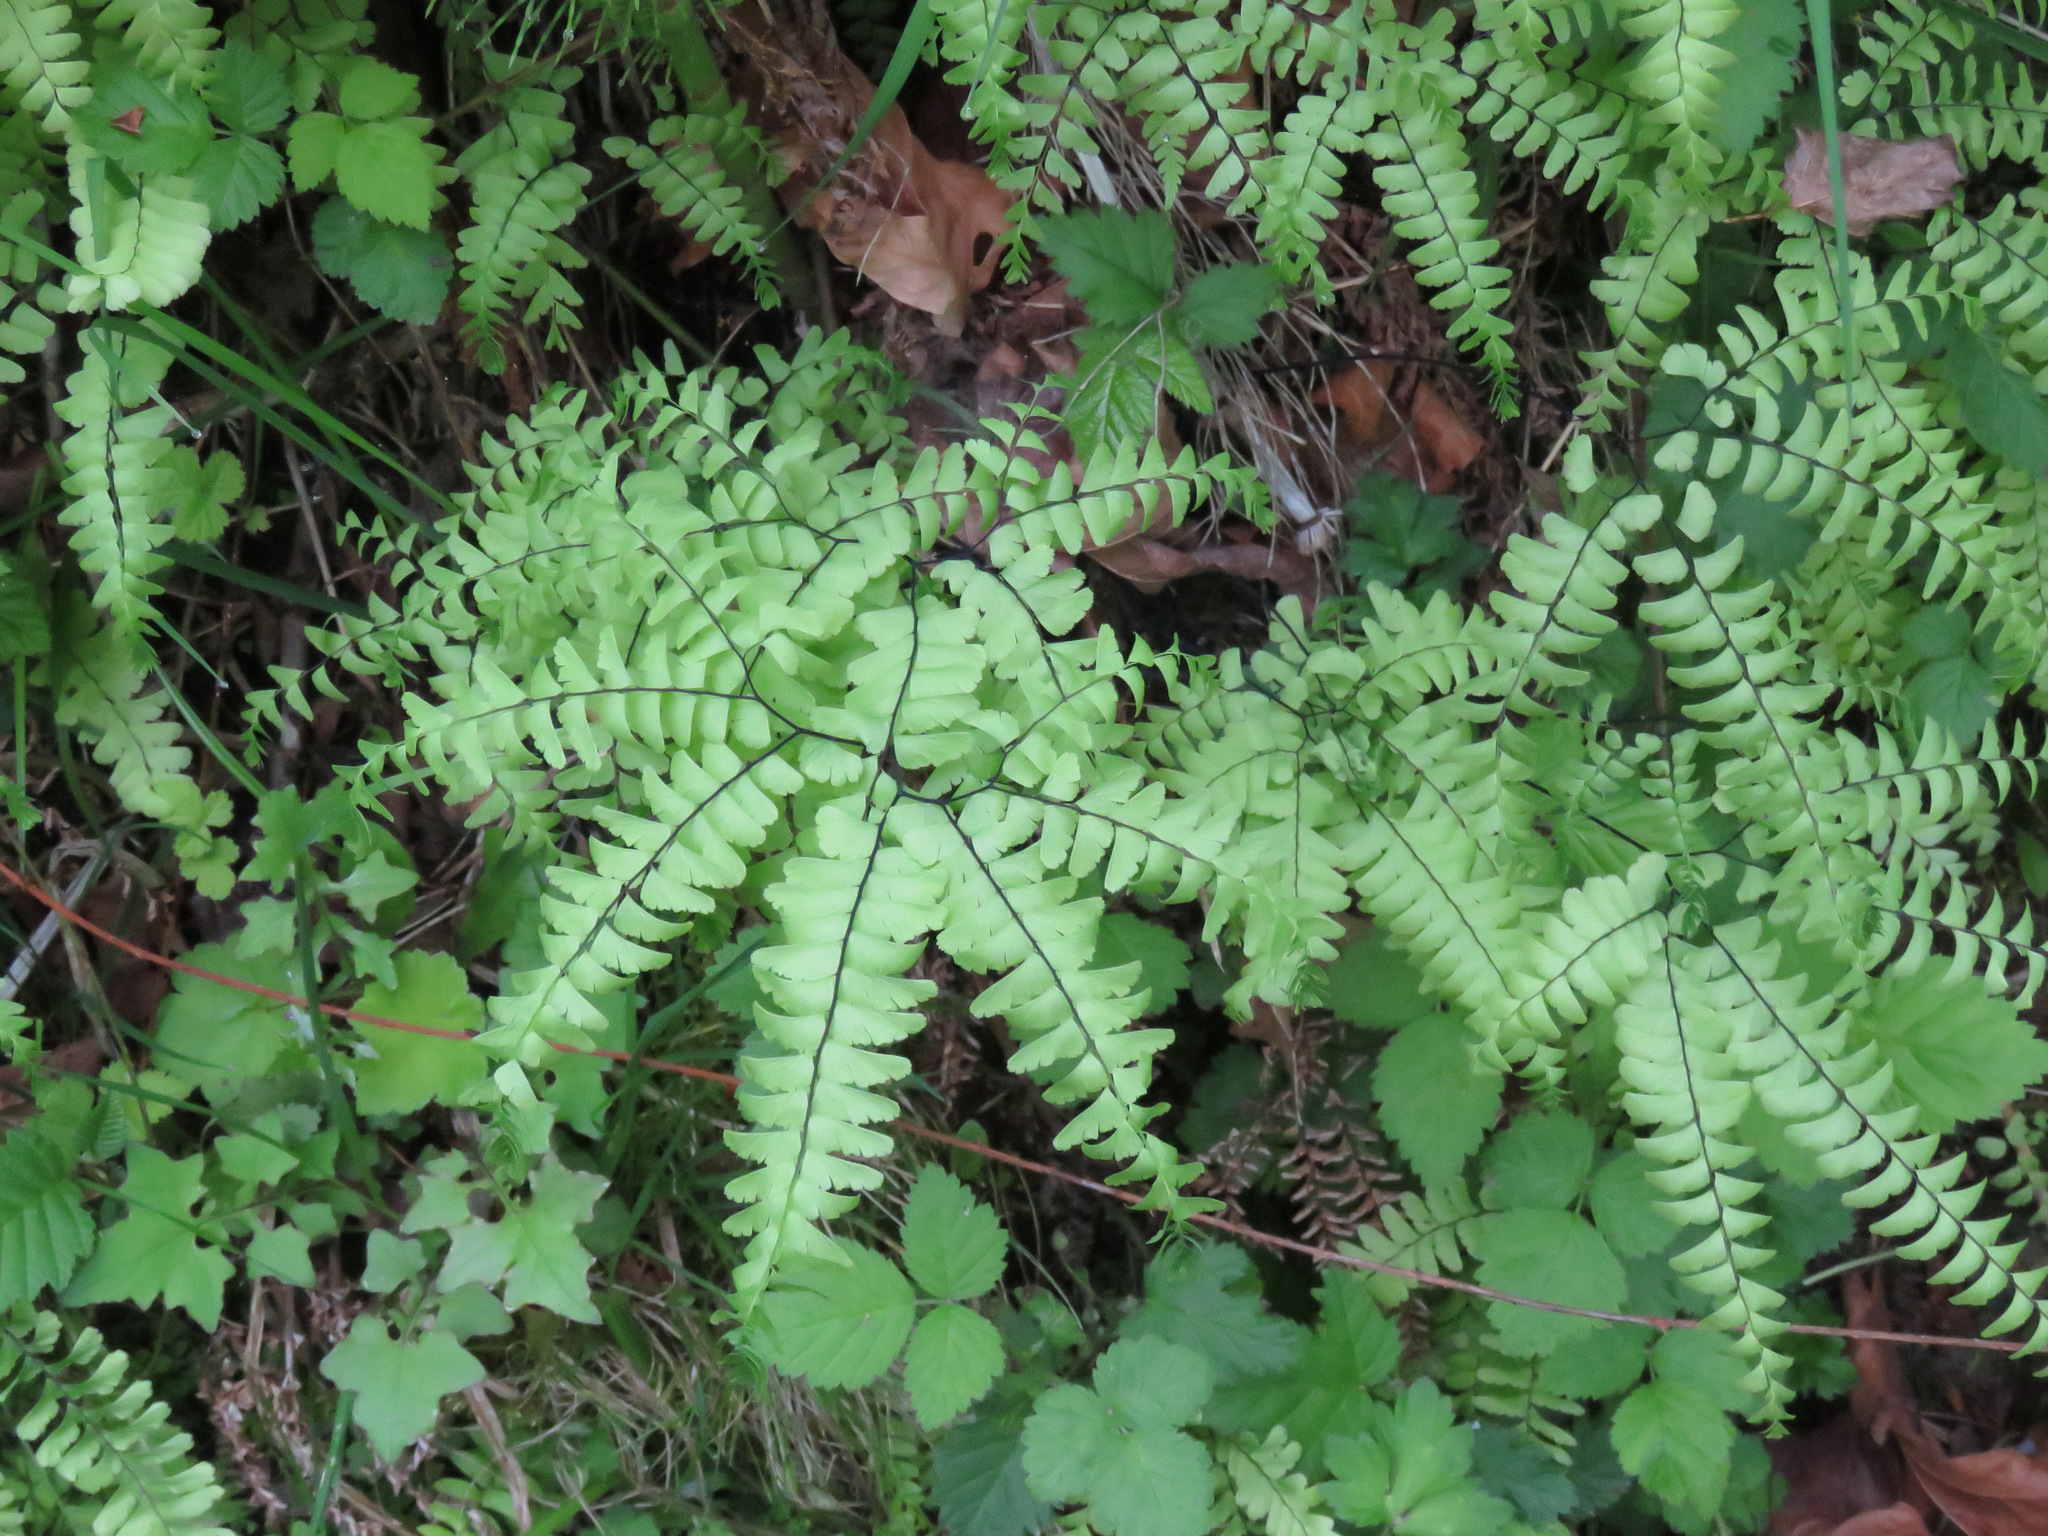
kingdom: Plantae
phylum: Tracheophyta
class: Polypodiopsida
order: Polypodiales
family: Pteridaceae
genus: Adiantum
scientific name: Adiantum aleuticum
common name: Aleutian maidenhair fern
